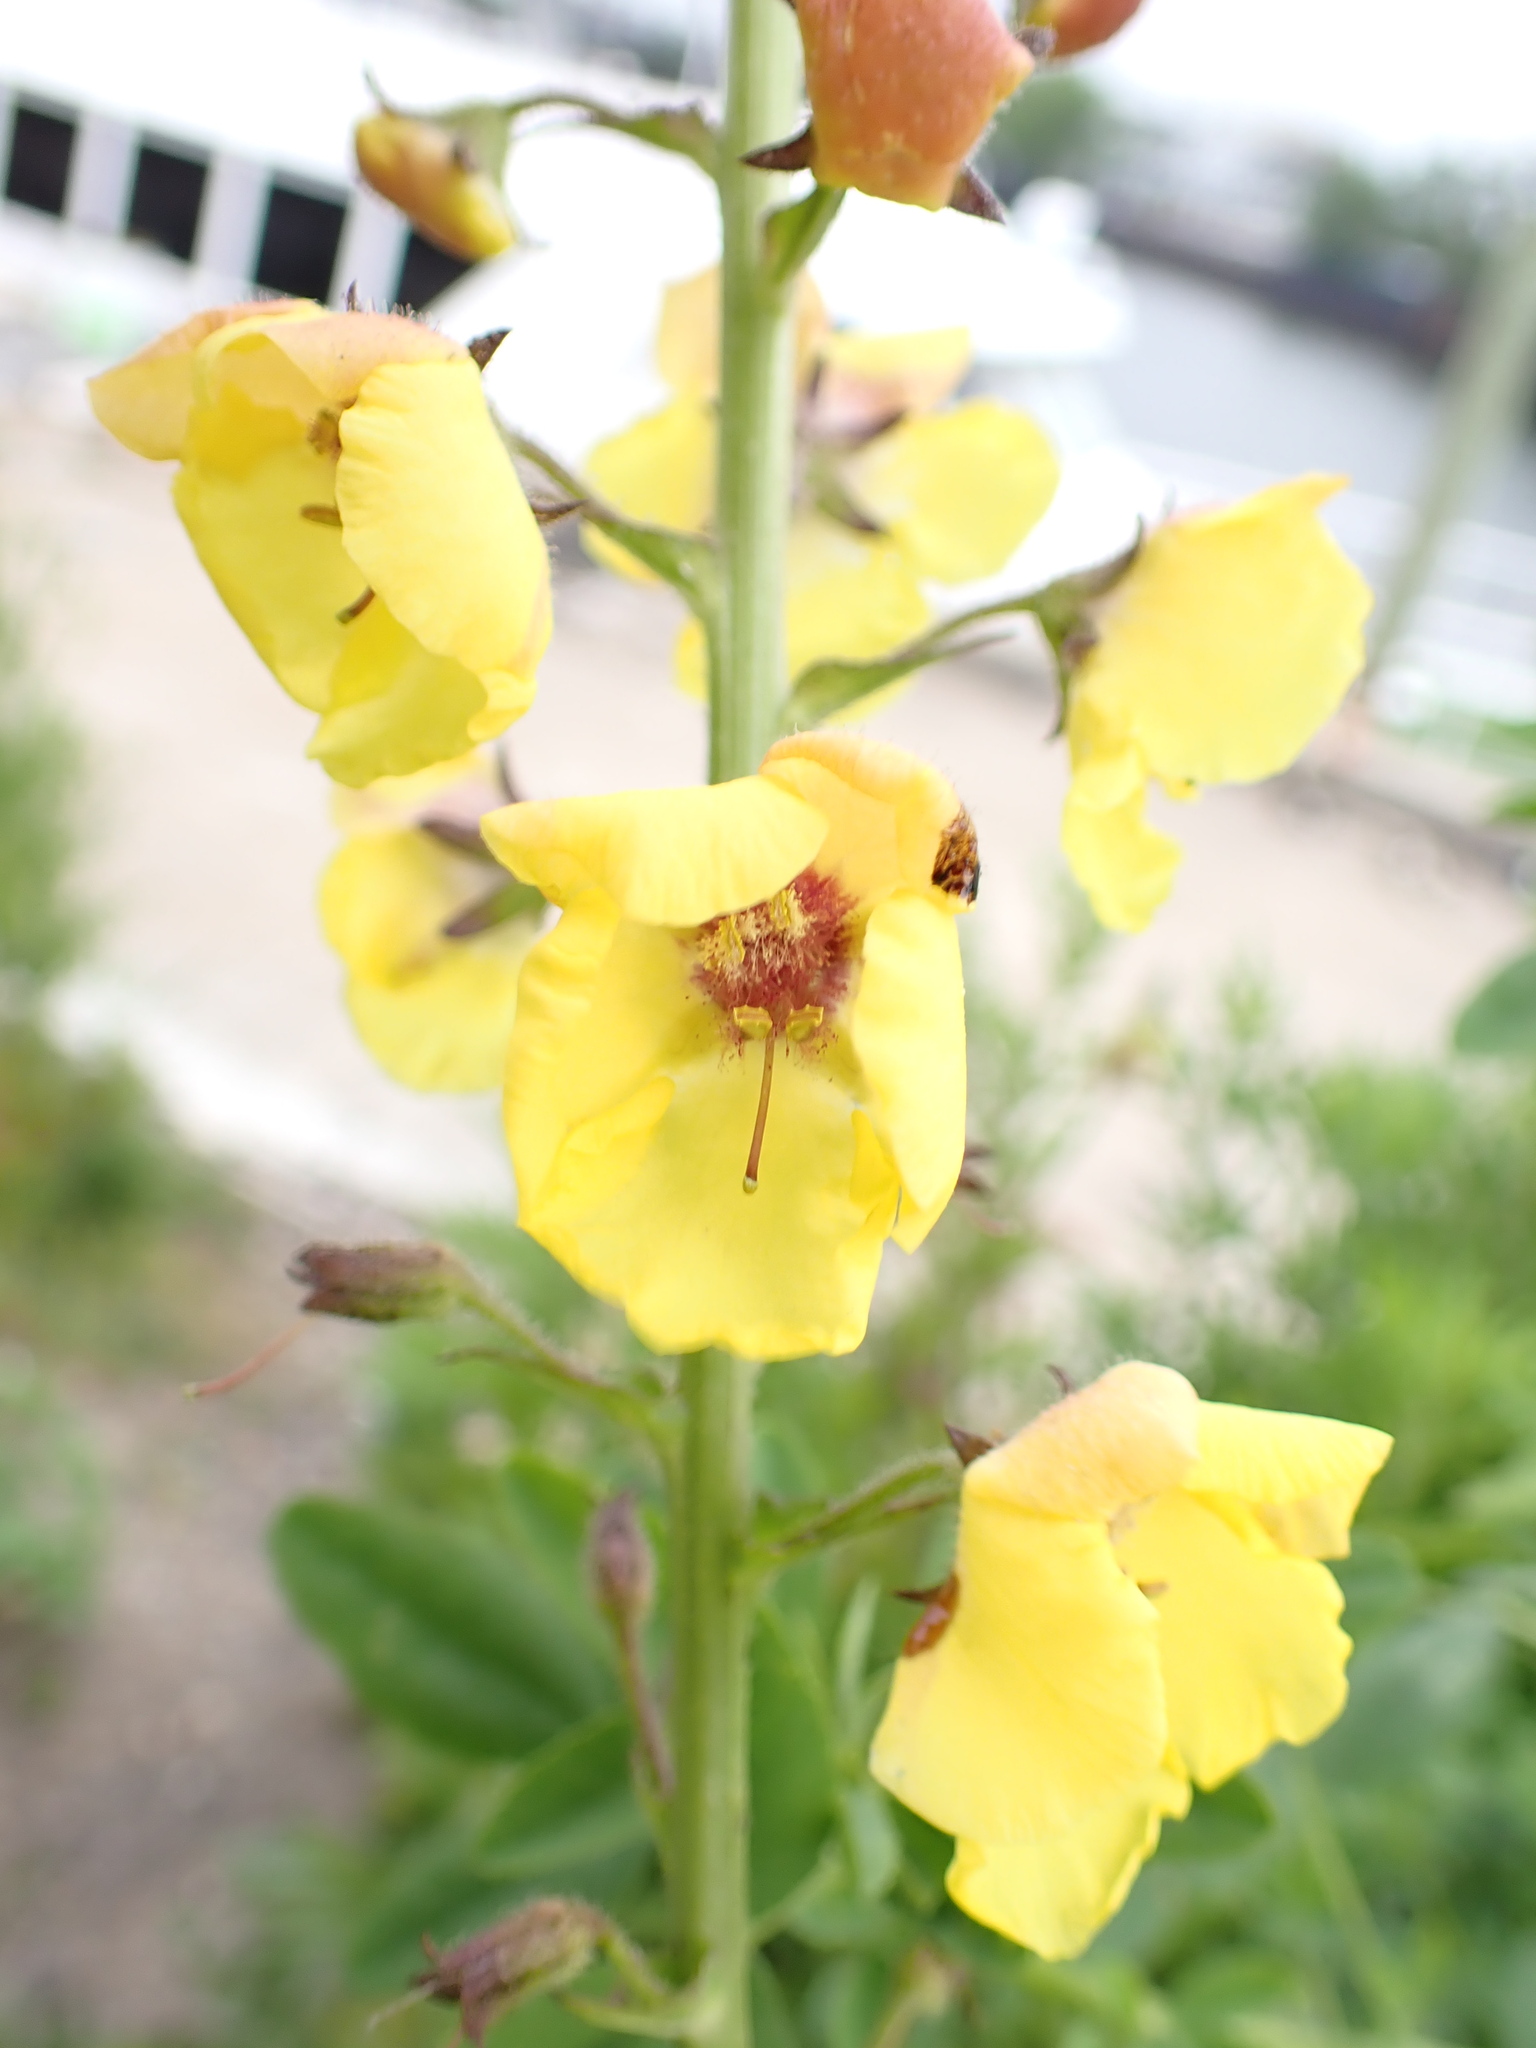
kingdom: Plantae
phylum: Tracheophyta
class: Magnoliopsida
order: Lamiales
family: Scrophulariaceae
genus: Verbascum
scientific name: Verbascum blattaria
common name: Moth mullein
